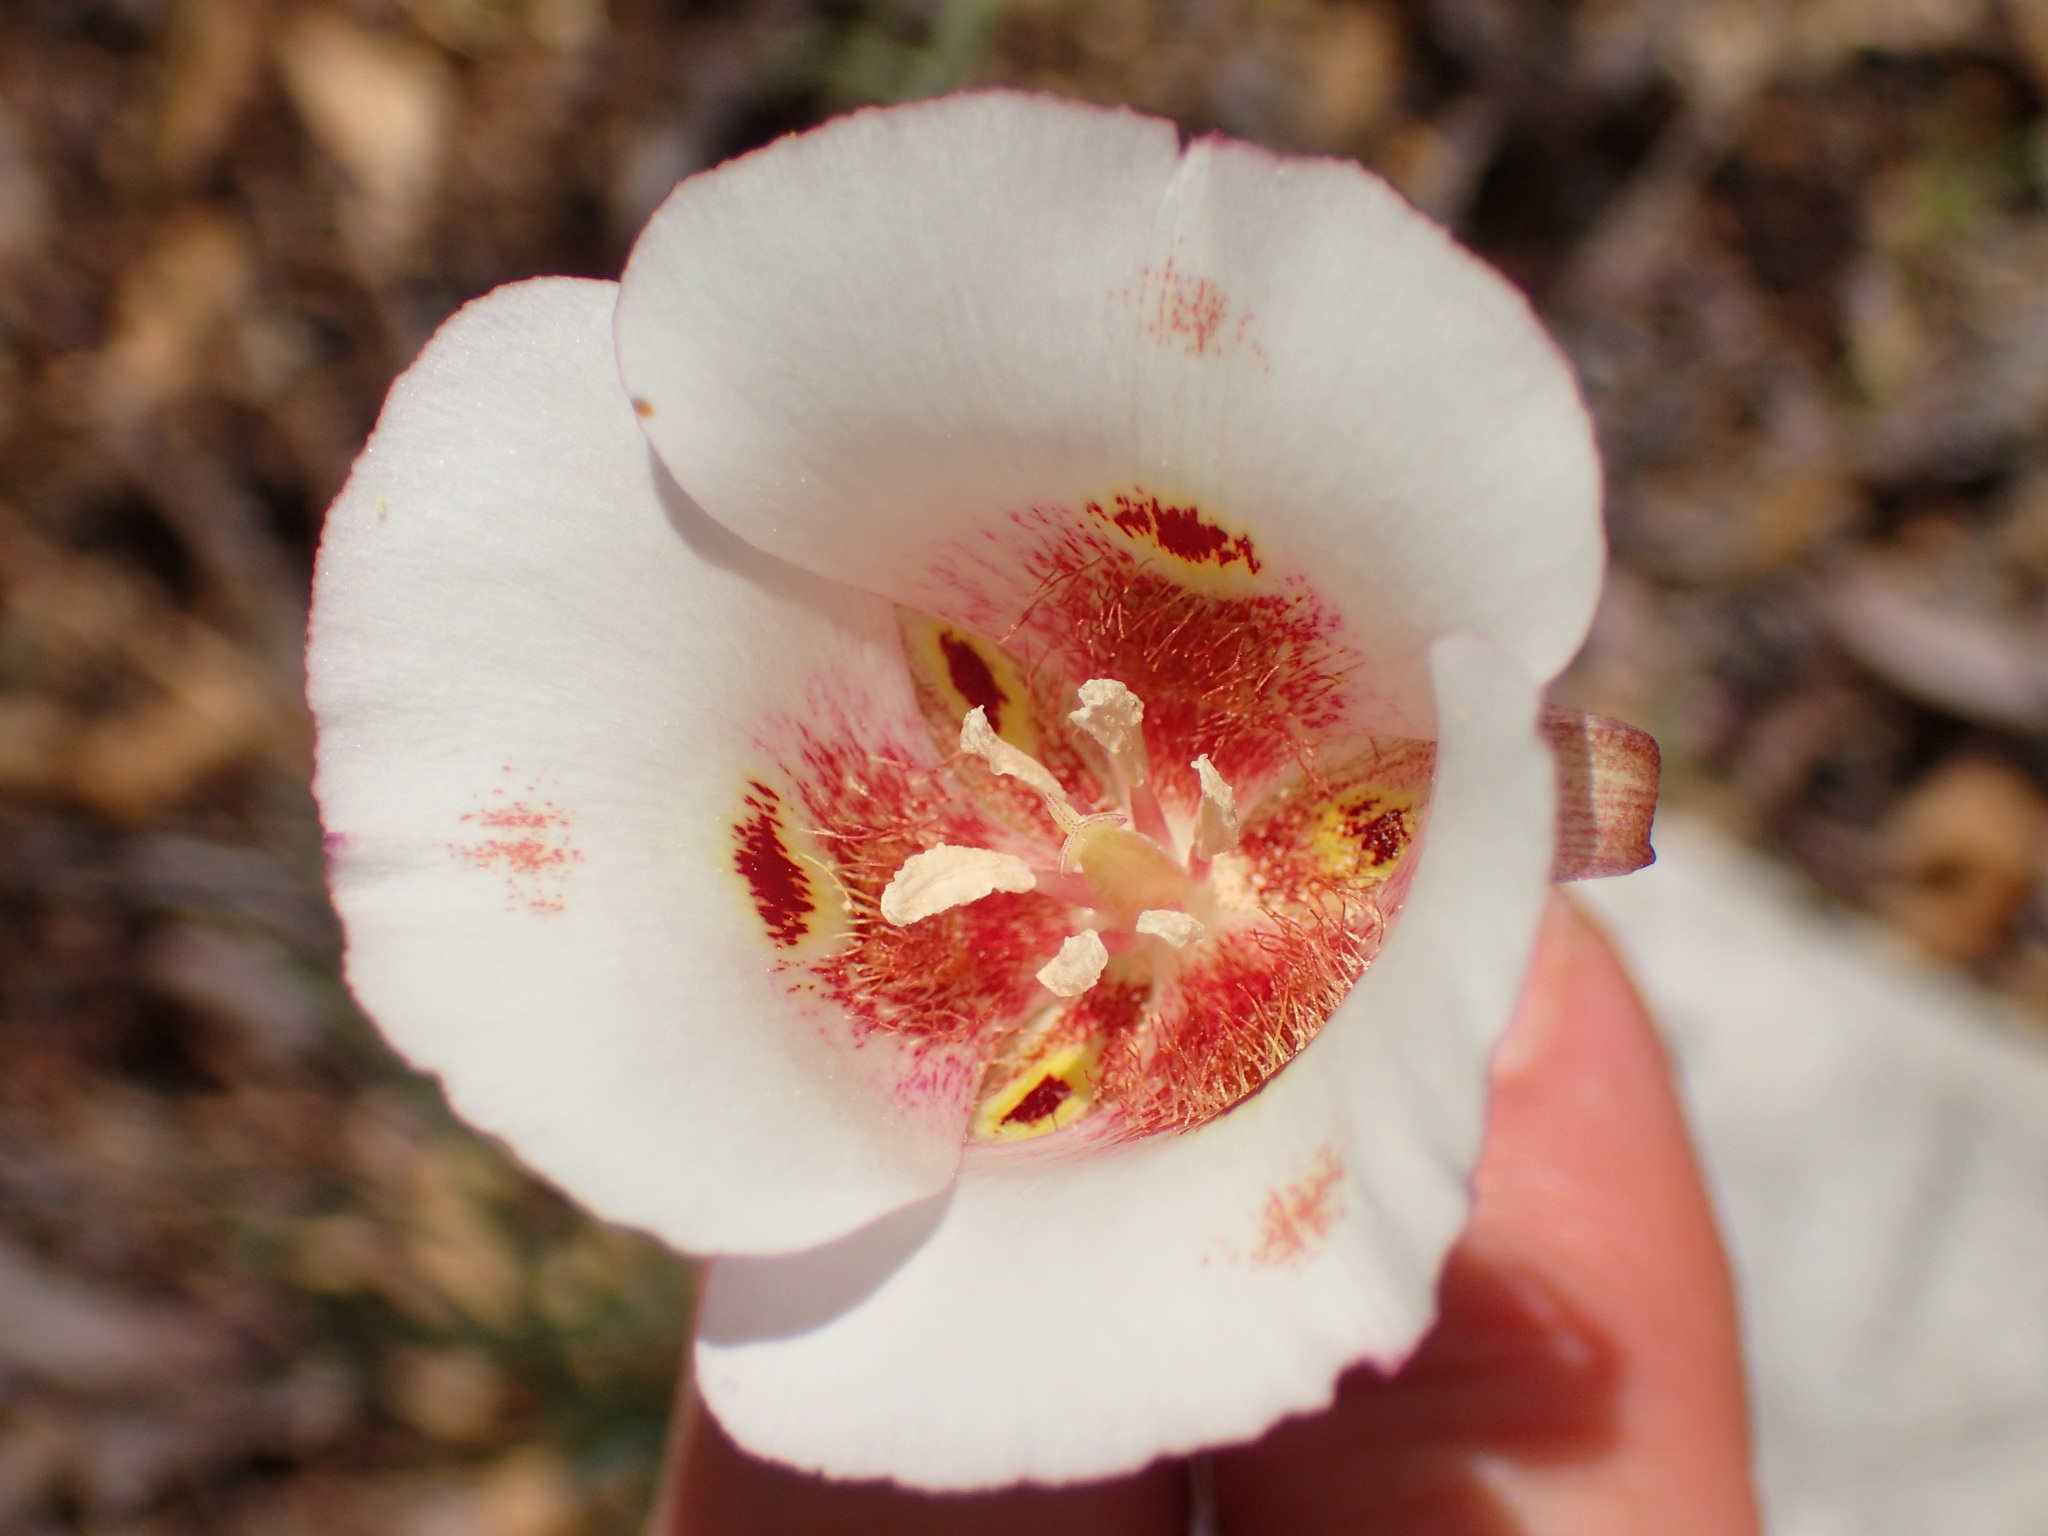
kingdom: Plantae
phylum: Tracheophyta
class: Liliopsida
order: Liliales
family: Liliaceae
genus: Calochortus
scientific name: Calochortus venustus
